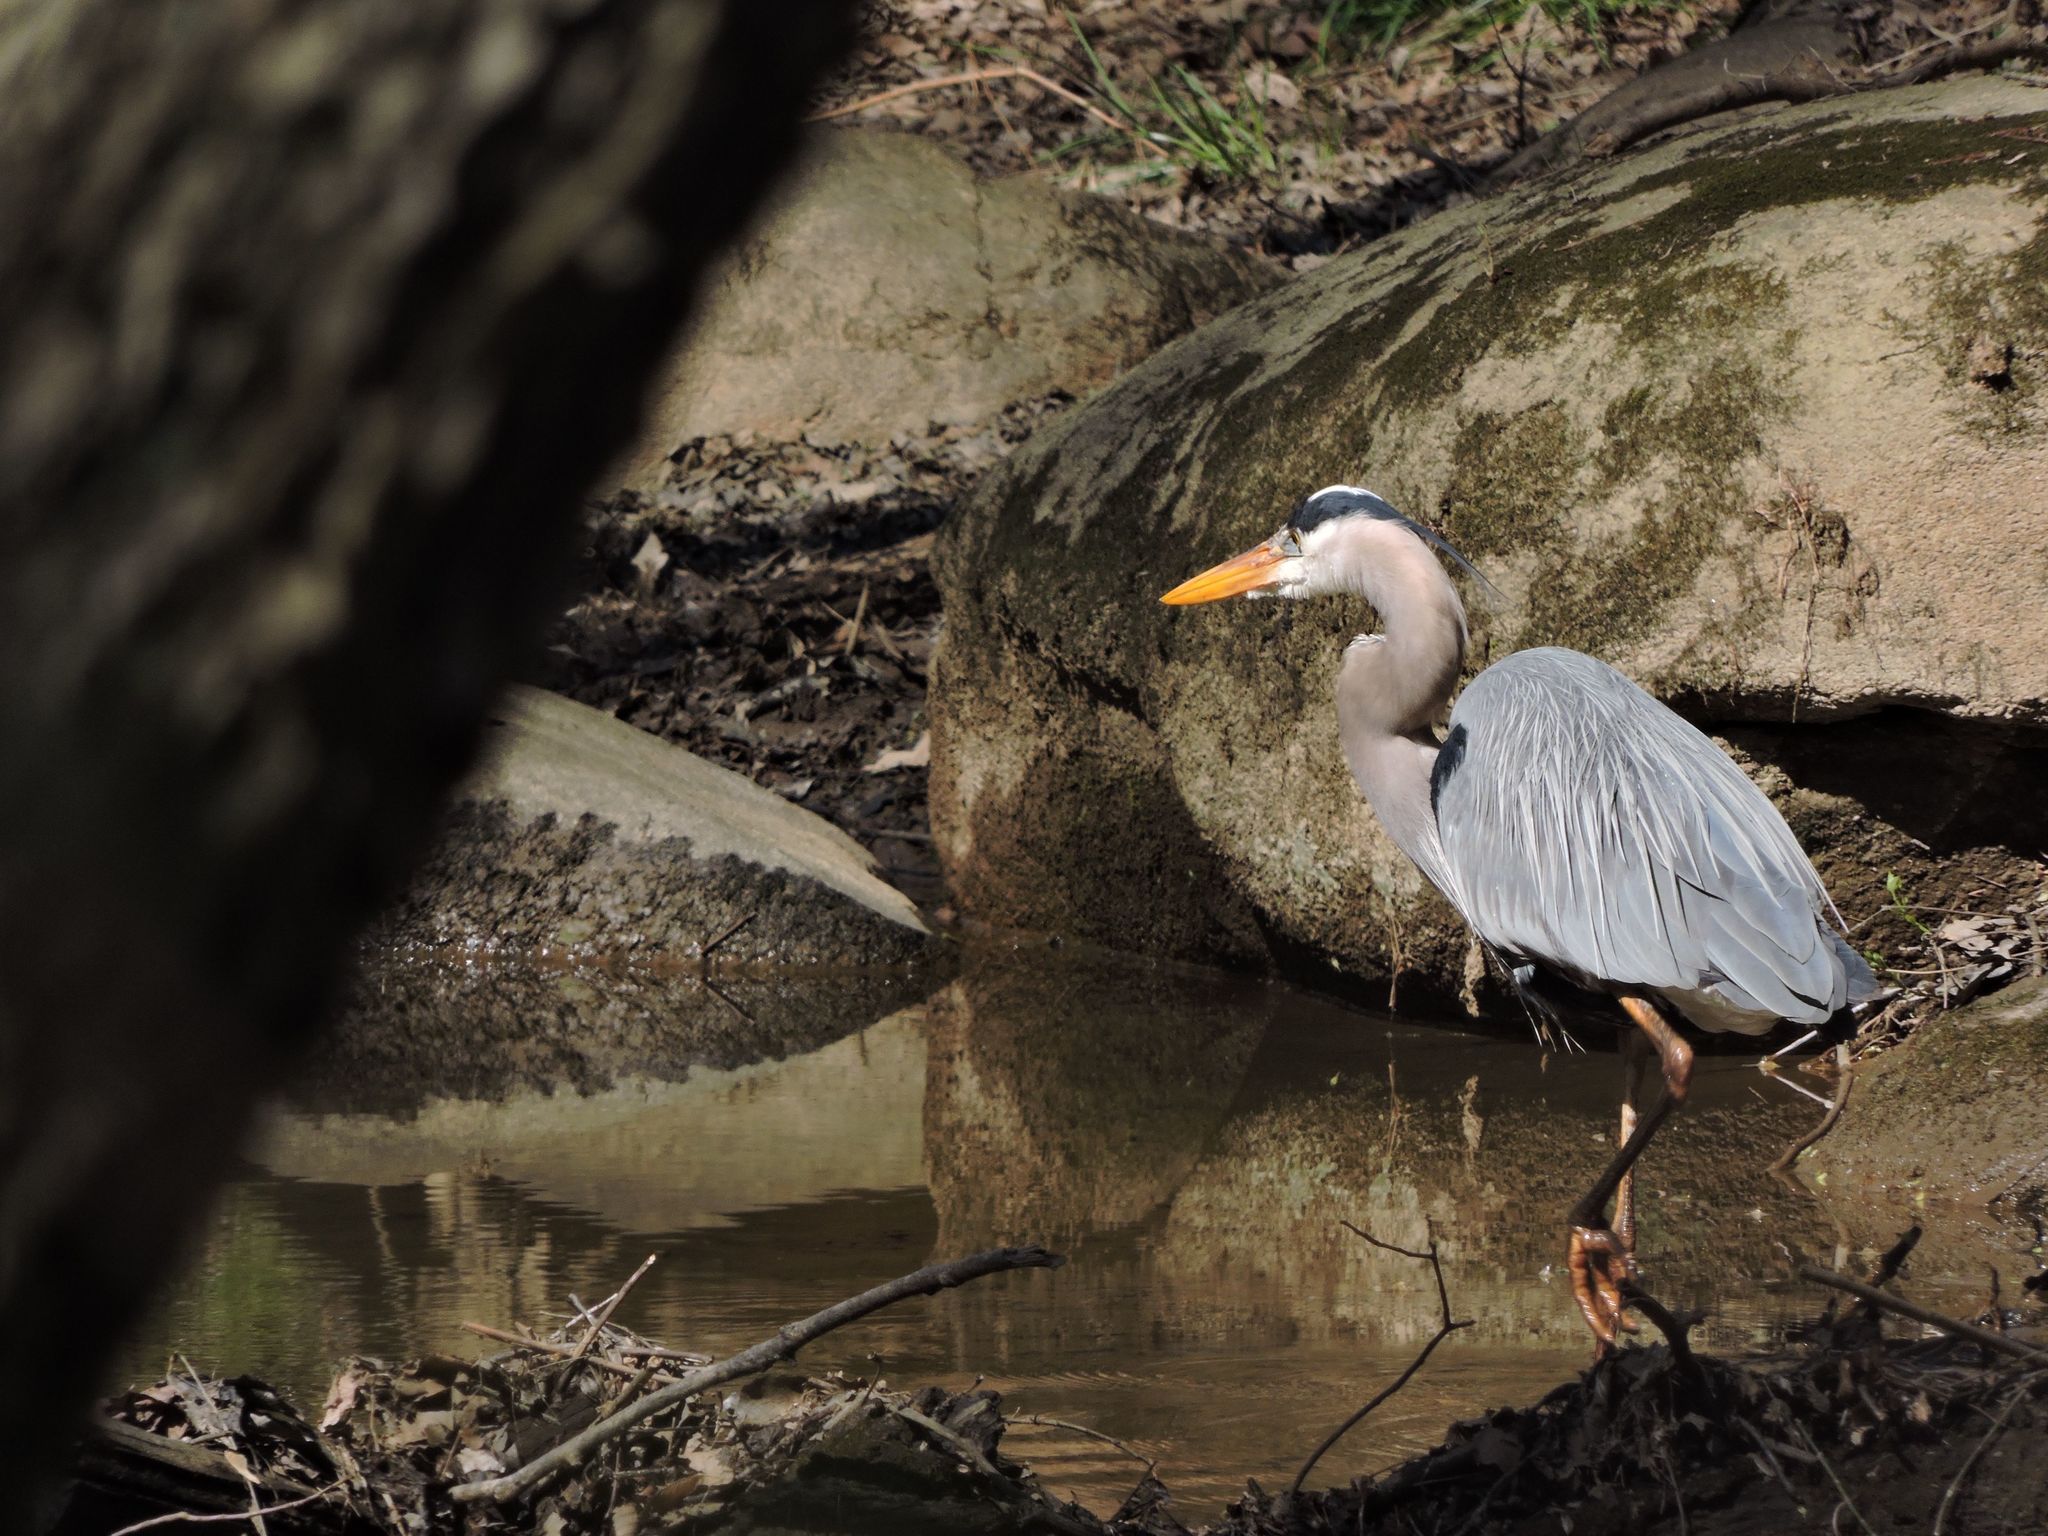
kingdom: Animalia
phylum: Chordata
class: Aves
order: Pelecaniformes
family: Ardeidae
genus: Ardea
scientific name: Ardea herodias
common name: Great blue heron
